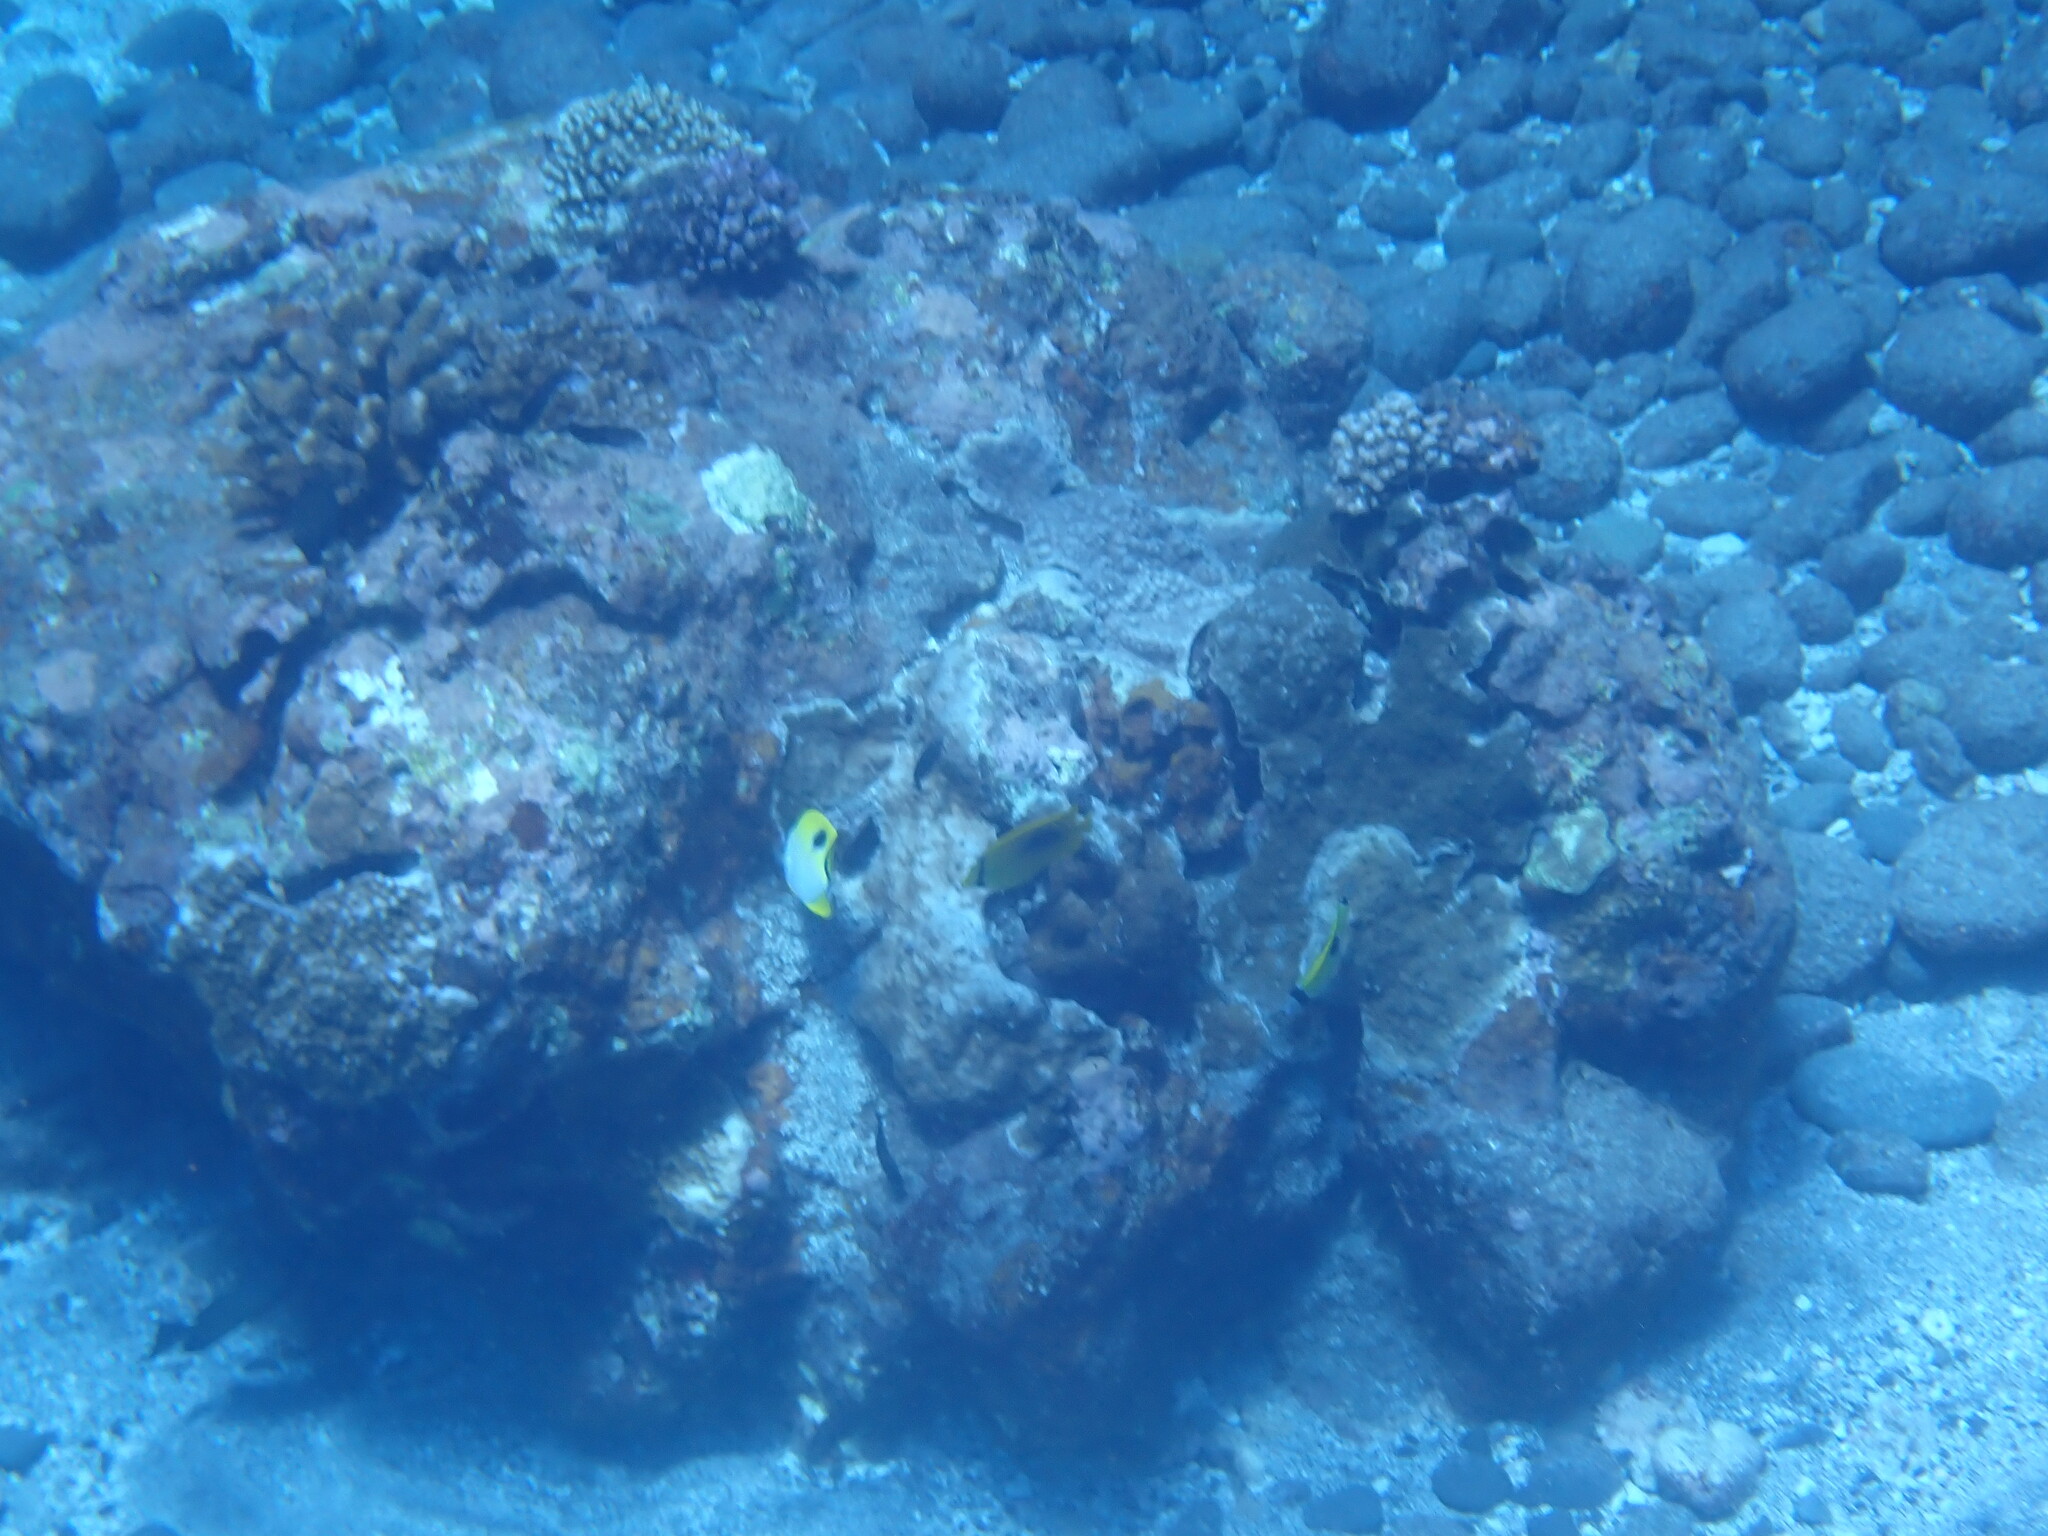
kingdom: Animalia
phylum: Chordata
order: Perciformes
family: Chaetodontidae
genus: Chaetodon
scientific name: Chaetodon unimaculatus
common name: Teardrop butterflyfish
